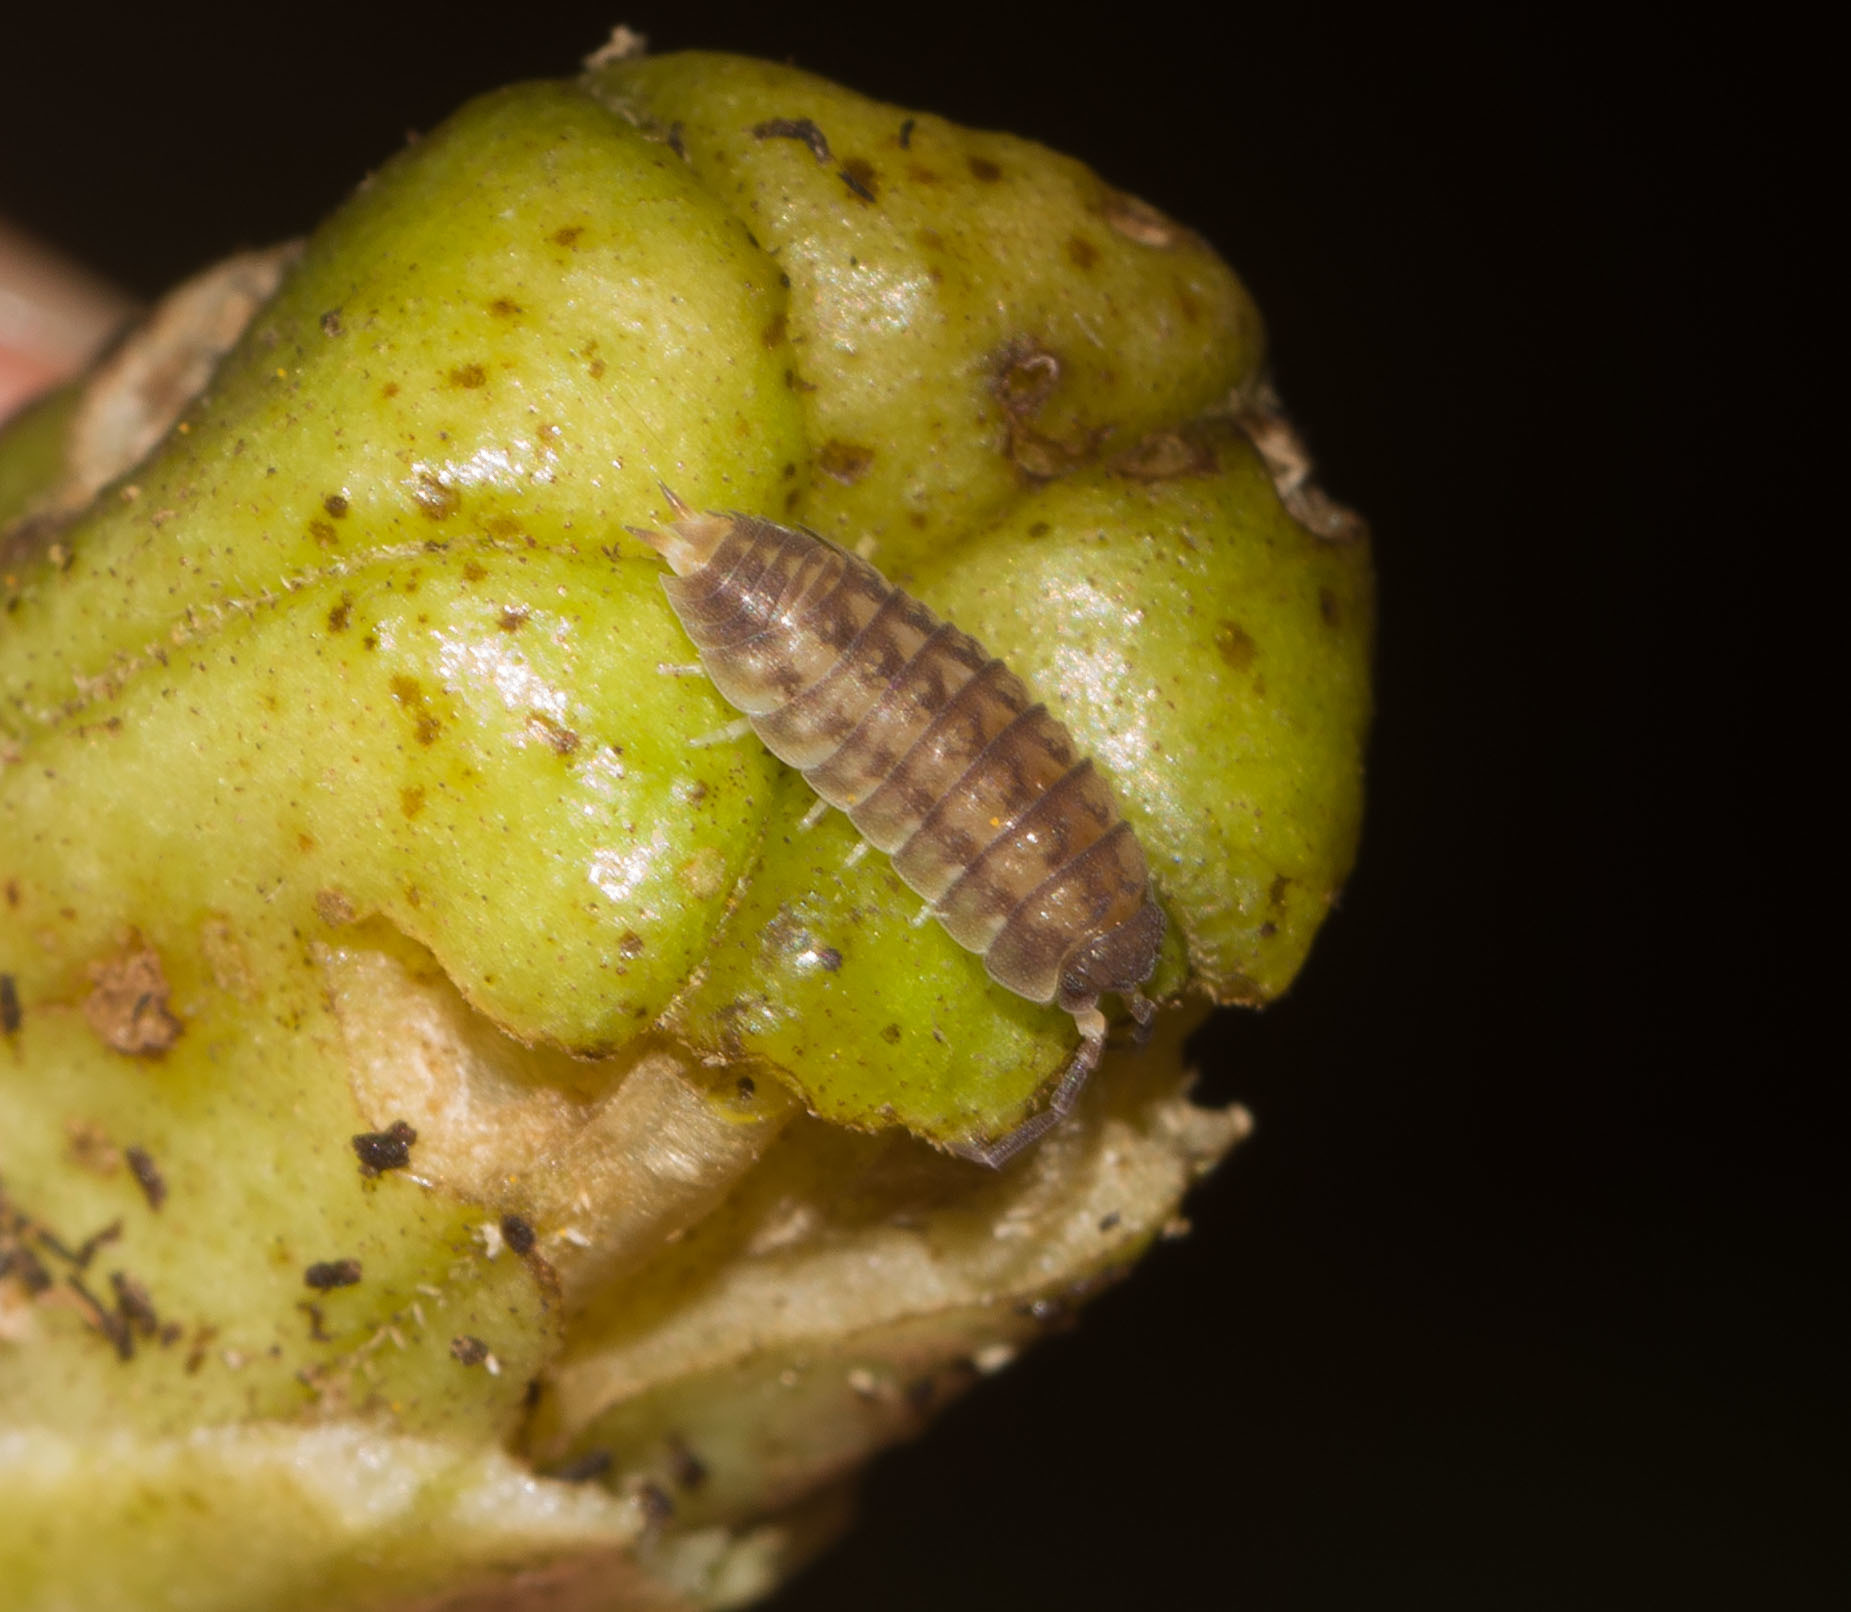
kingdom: Animalia
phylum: Arthropoda
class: Malacostraca
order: Isopoda
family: Trachelipodidae
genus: Nagurus
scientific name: Nagurus cristatus
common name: Pillbug
